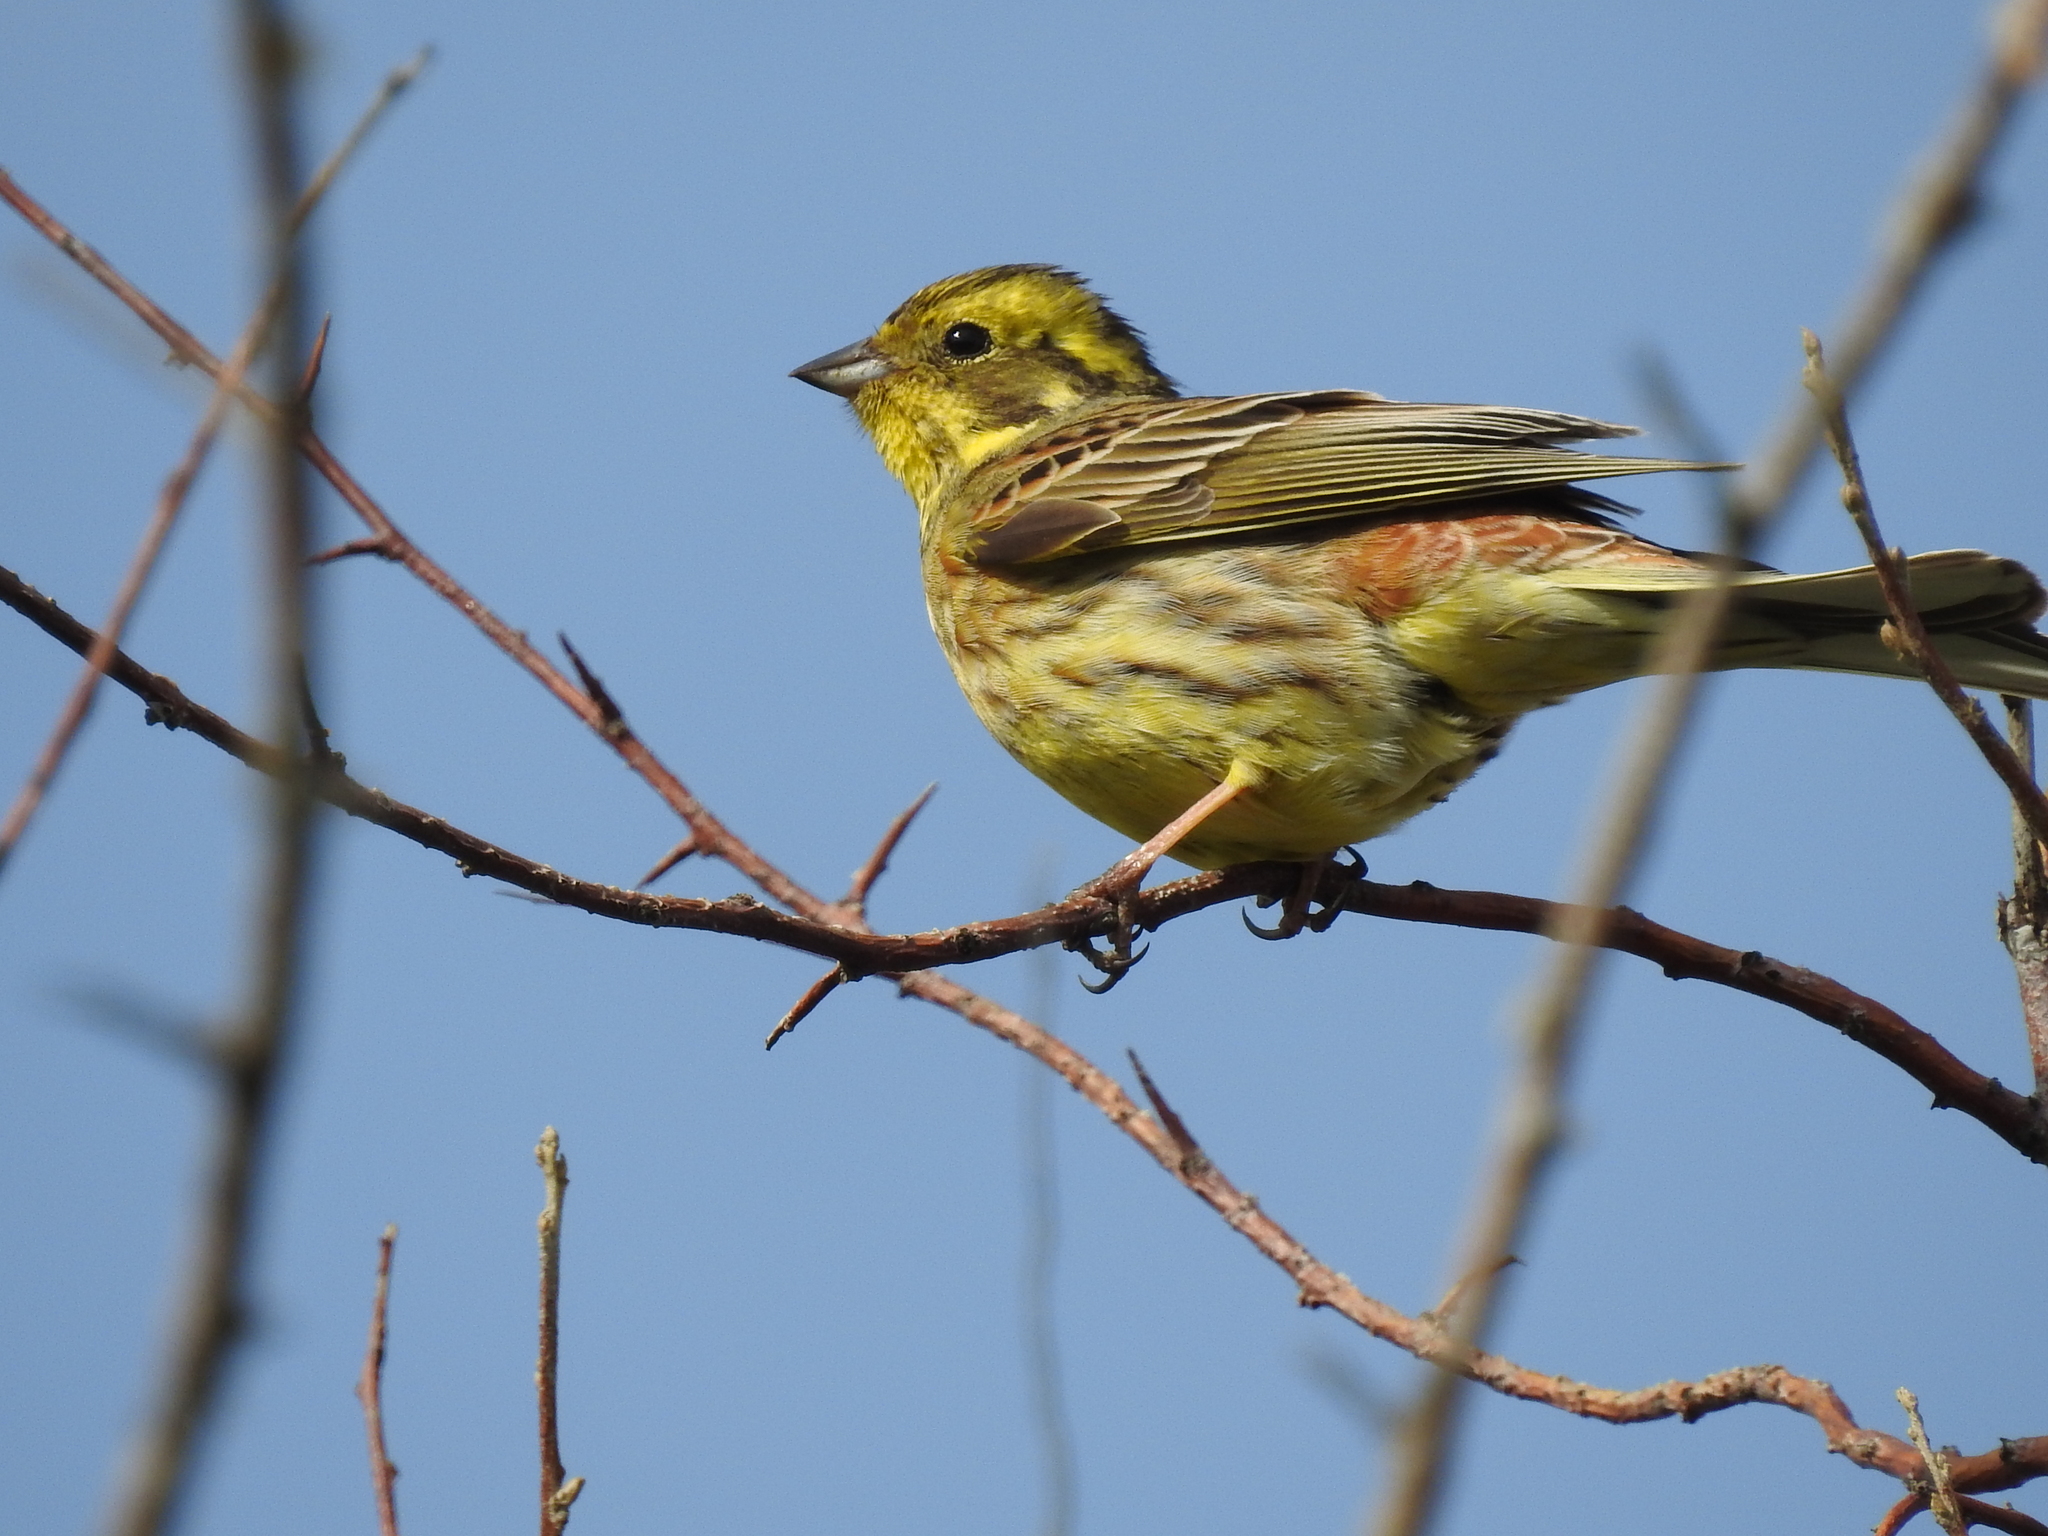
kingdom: Animalia
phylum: Chordata
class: Aves
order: Passeriformes
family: Emberizidae
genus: Emberiza
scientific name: Emberiza citrinella
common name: Yellowhammer
